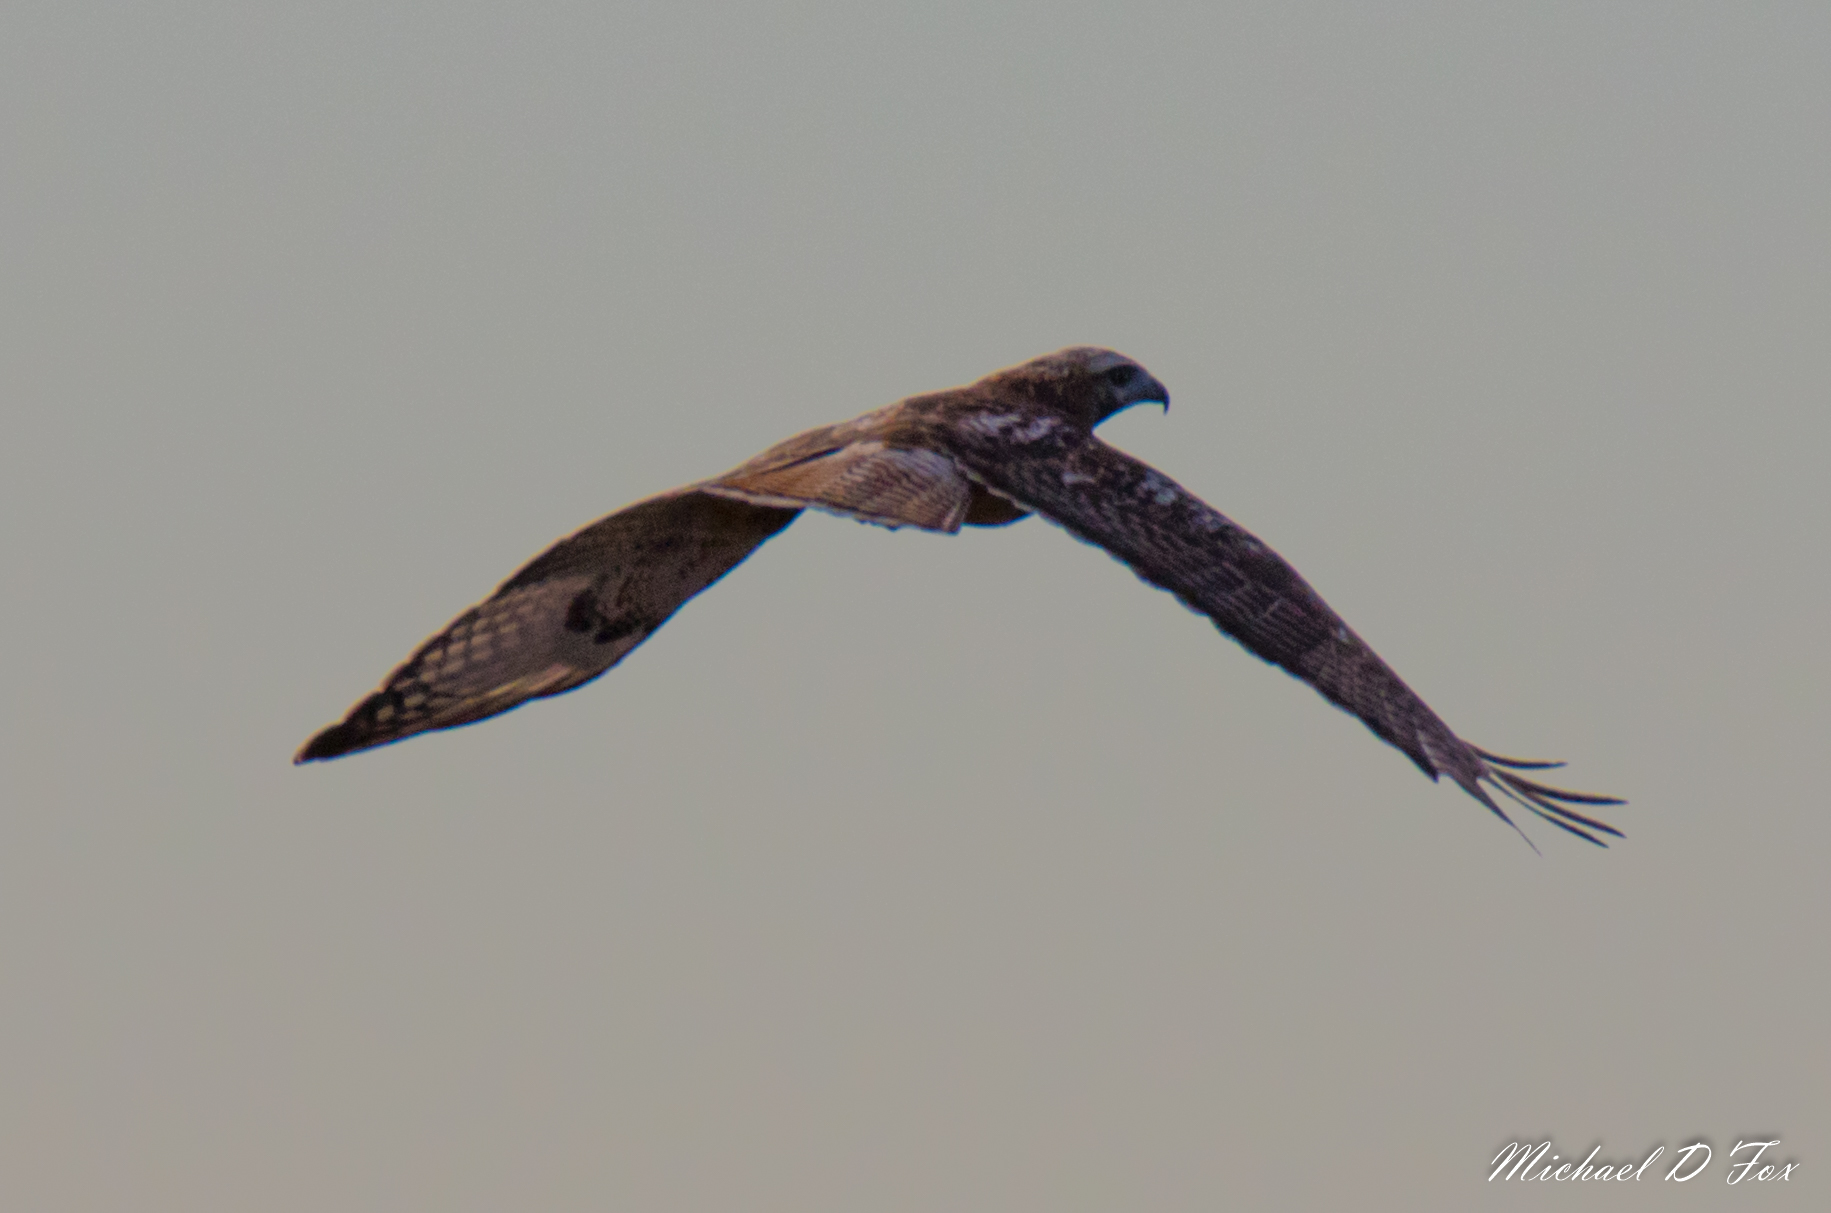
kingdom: Animalia
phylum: Chordata
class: Aves
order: Accipitriformes
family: Accipitridae
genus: Buteo
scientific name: Buteo jamaicensis
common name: Red-tailed hawk
